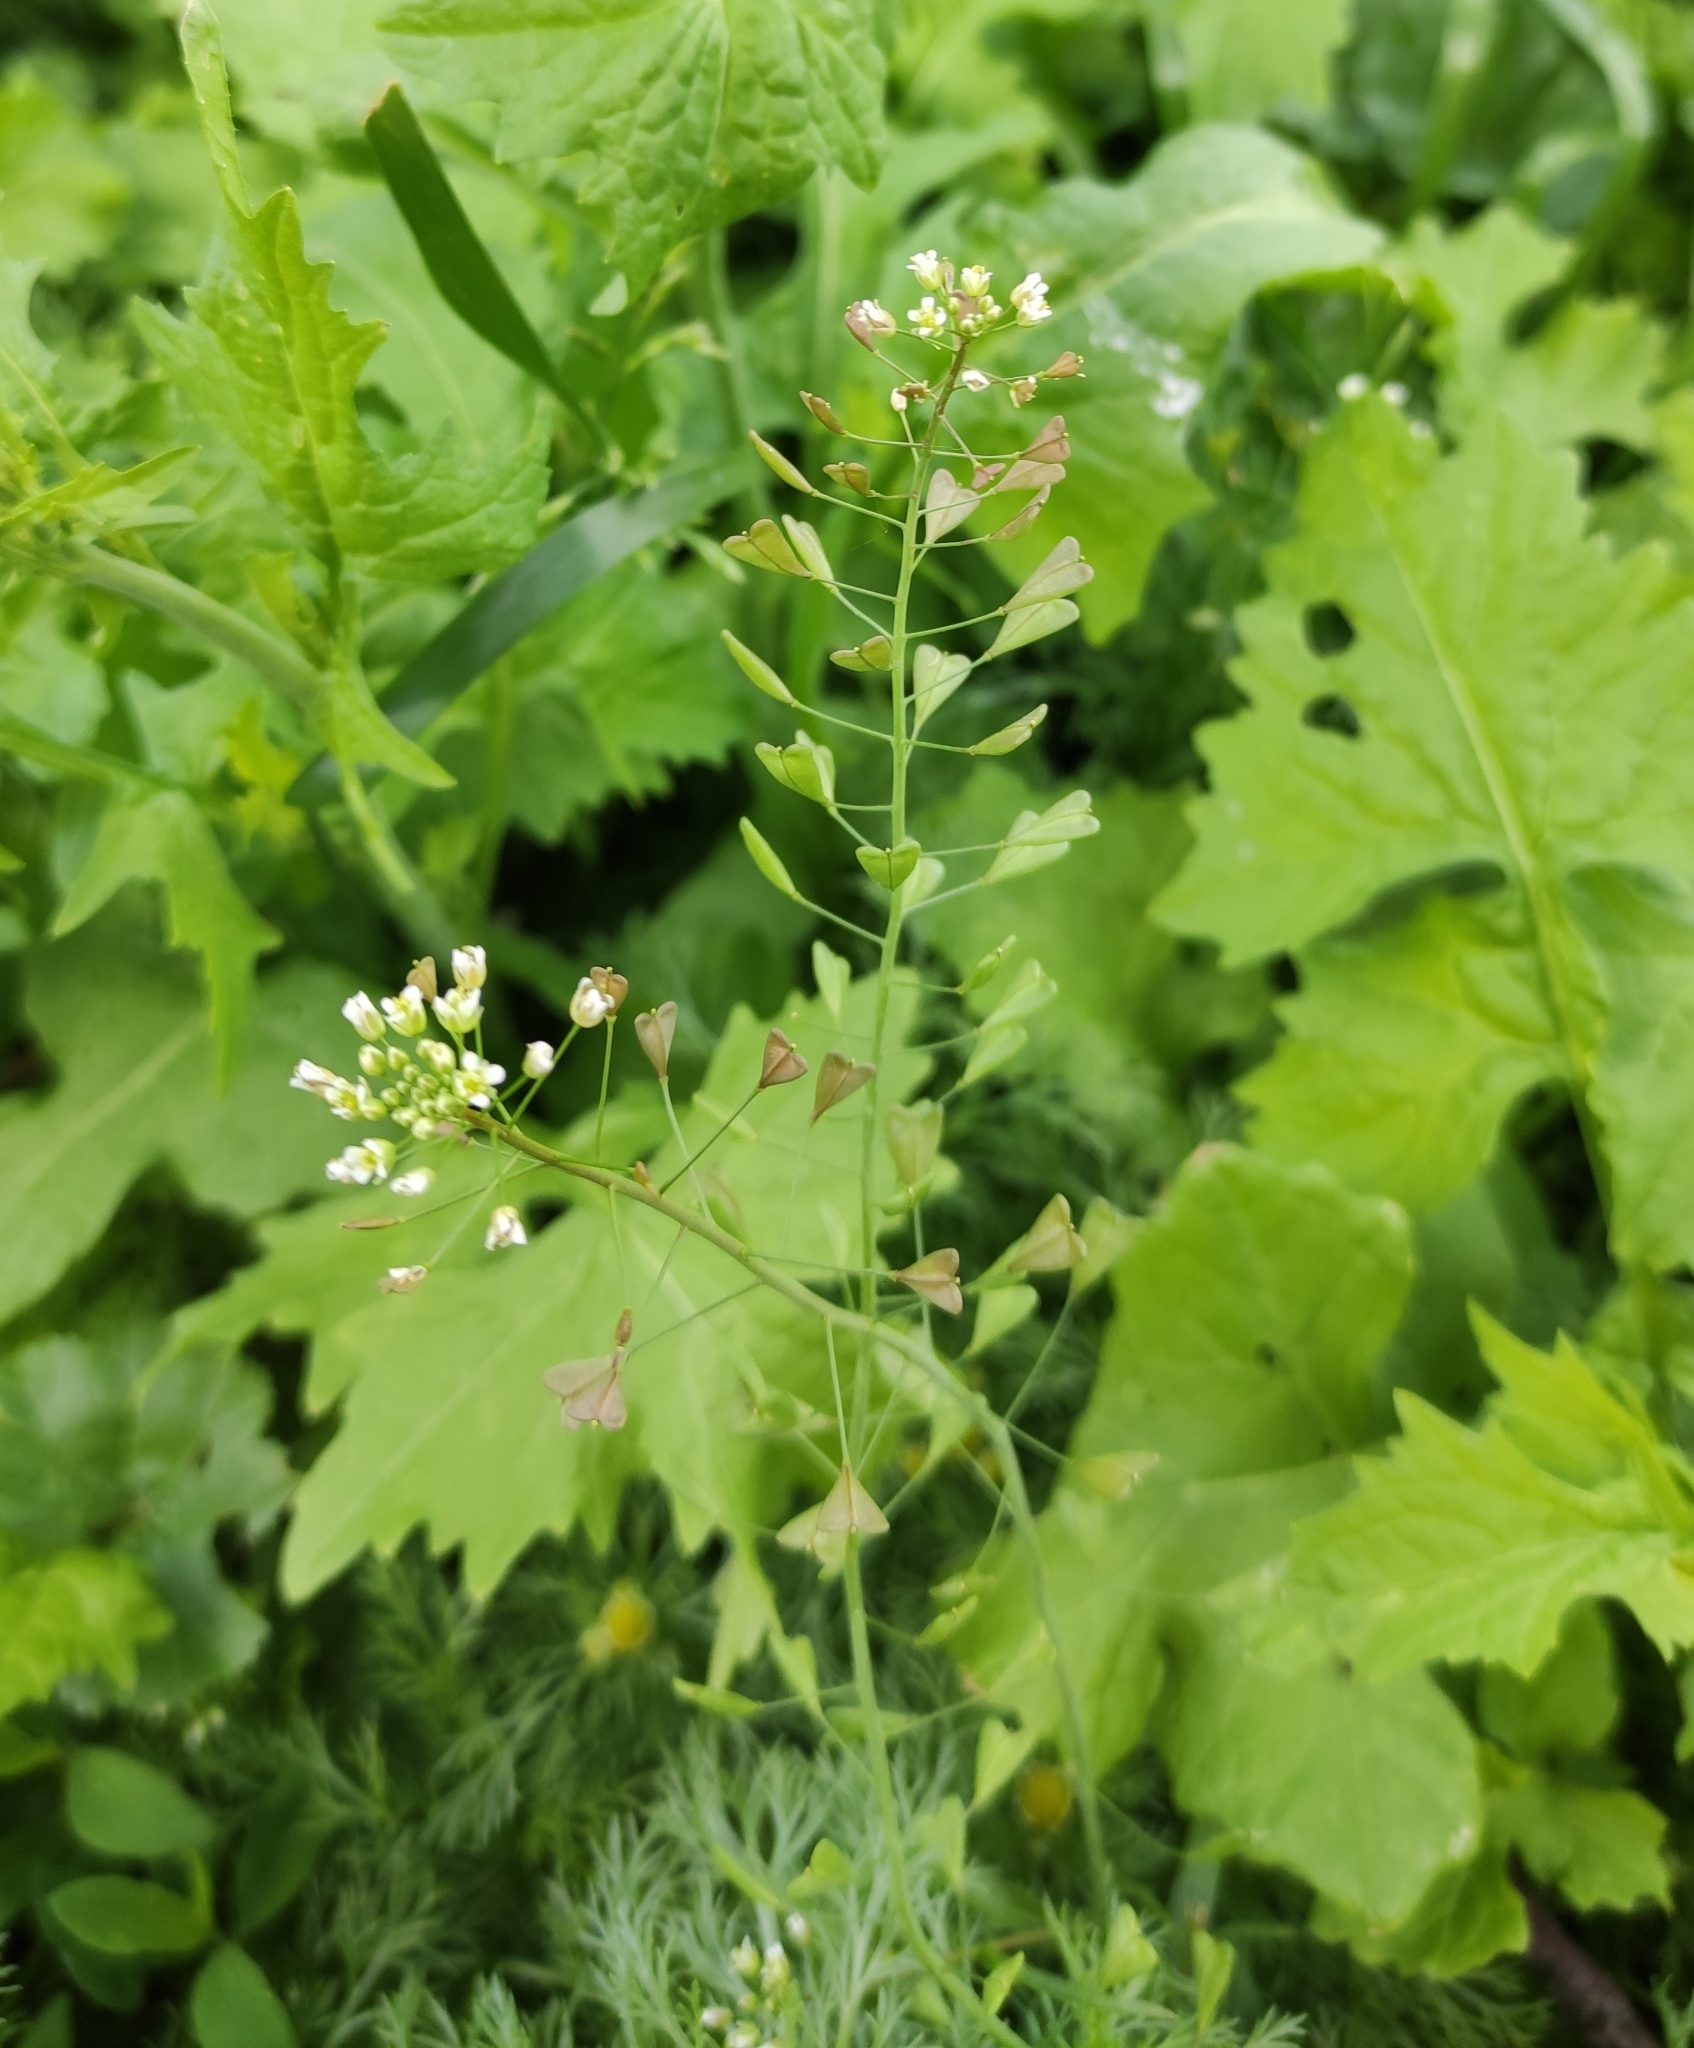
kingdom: Plantae
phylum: Tracheophyta
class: Magnoliopsida
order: Brassicales
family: Brassicaceae
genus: Capsella
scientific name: Capsella bursa-pastoris
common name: Shepherd's purse
